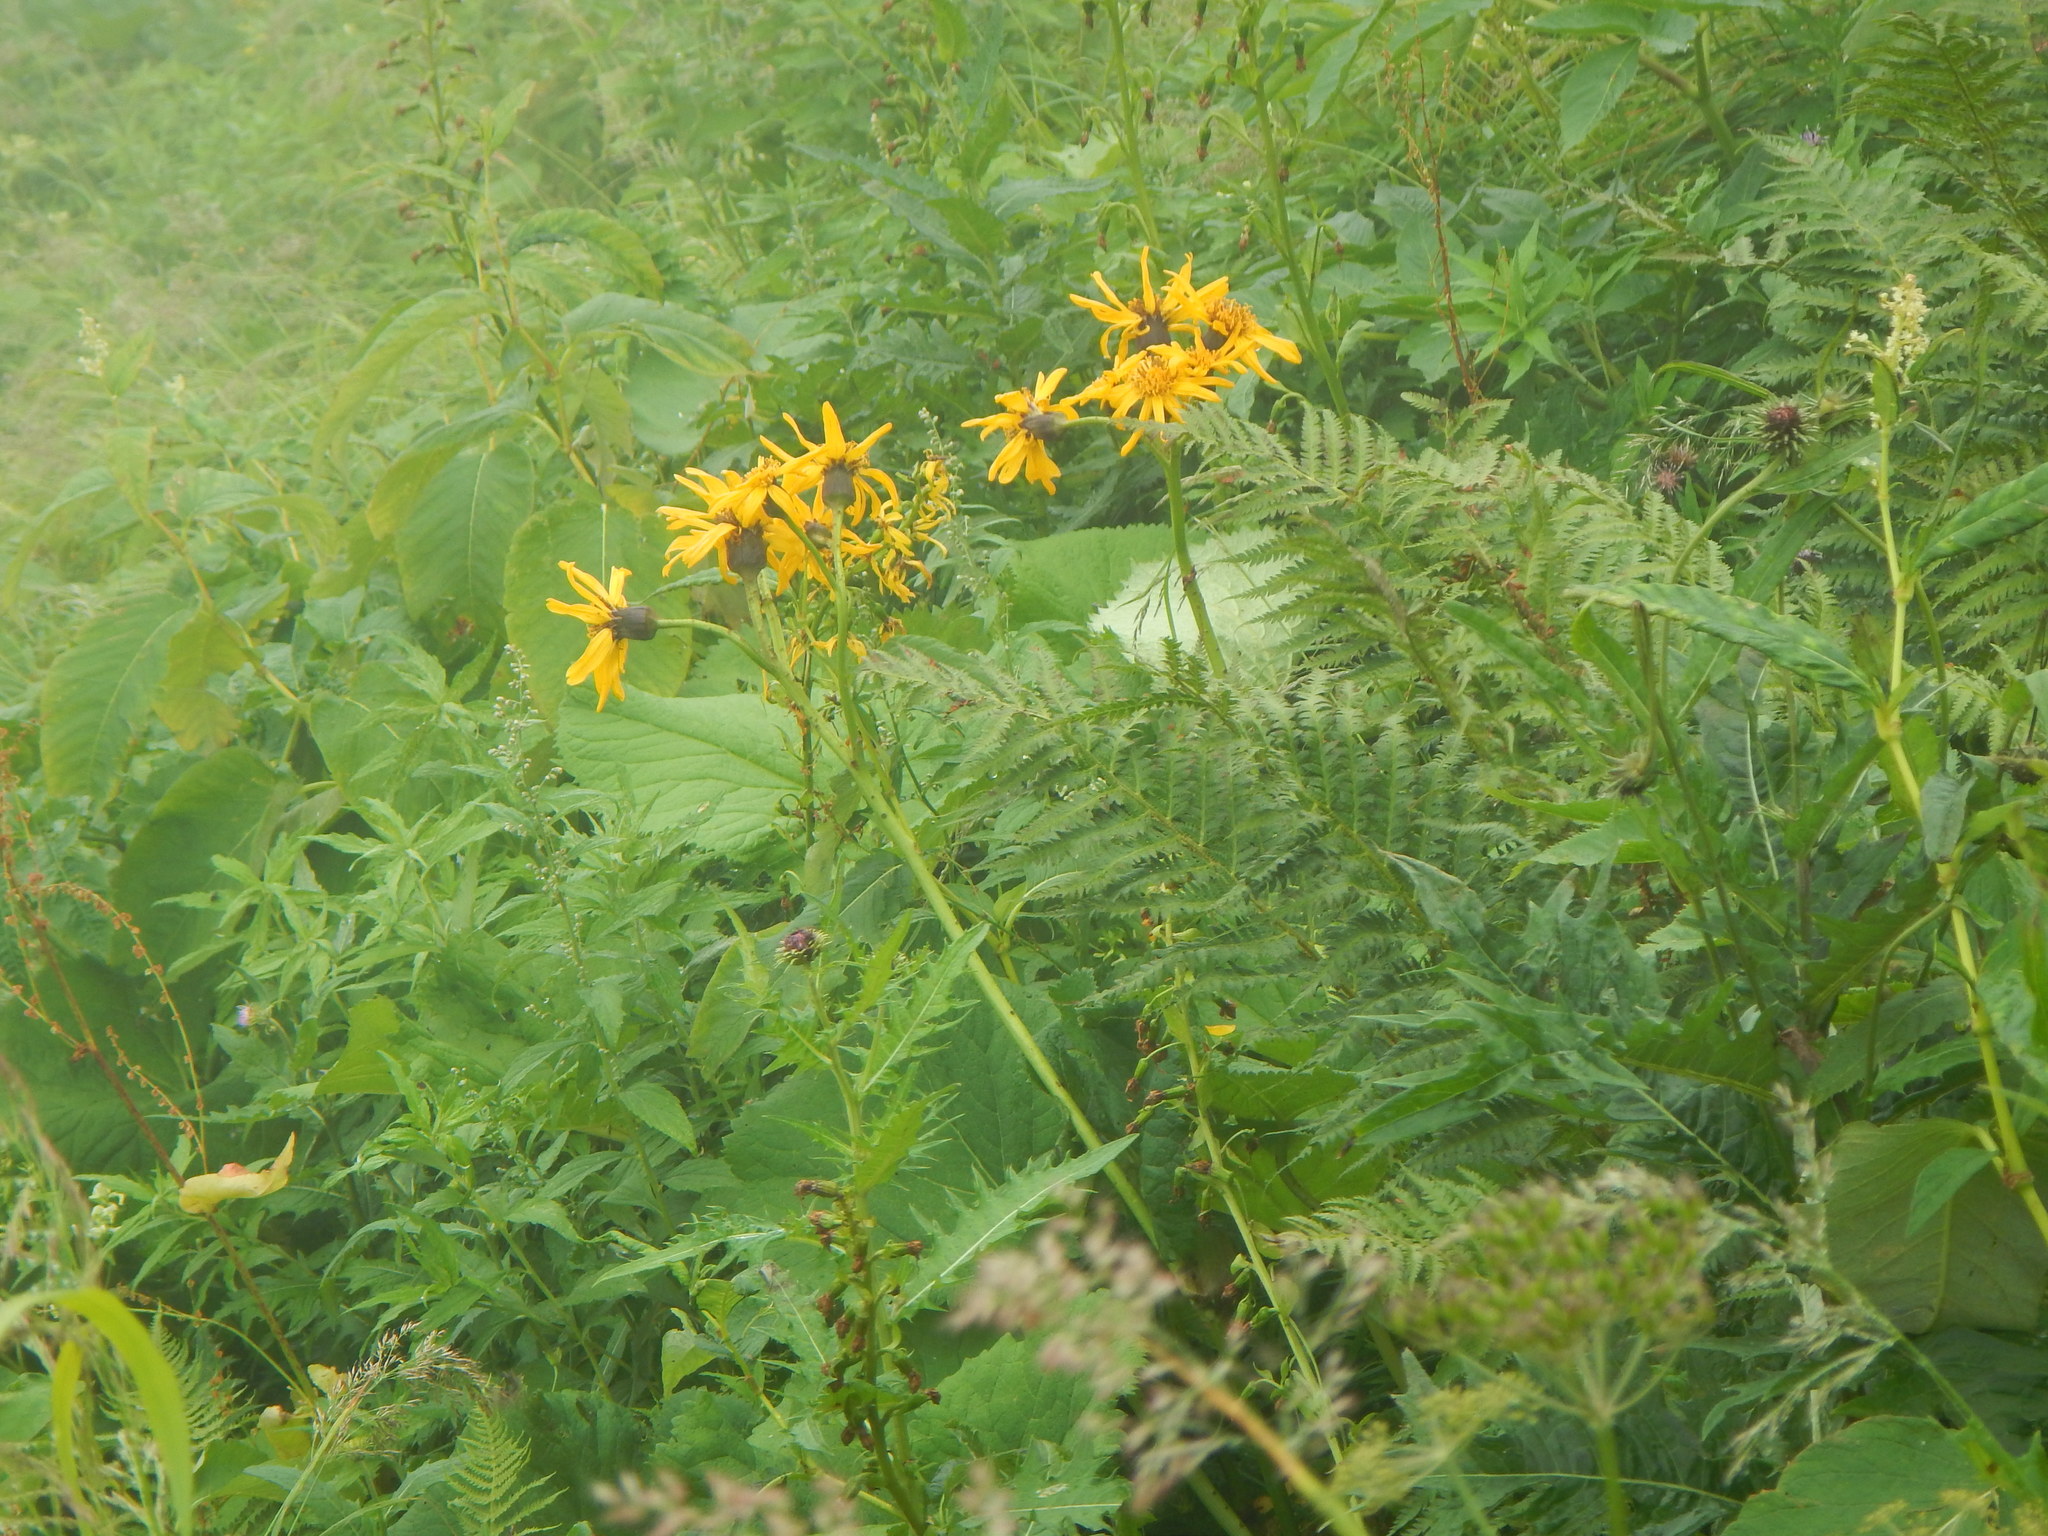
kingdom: Plantae
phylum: Tracheophyta
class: Magnoliopsida
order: Asterales
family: Asteraceae
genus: Ligularia
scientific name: Ligularia dentata
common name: Leopardplant
